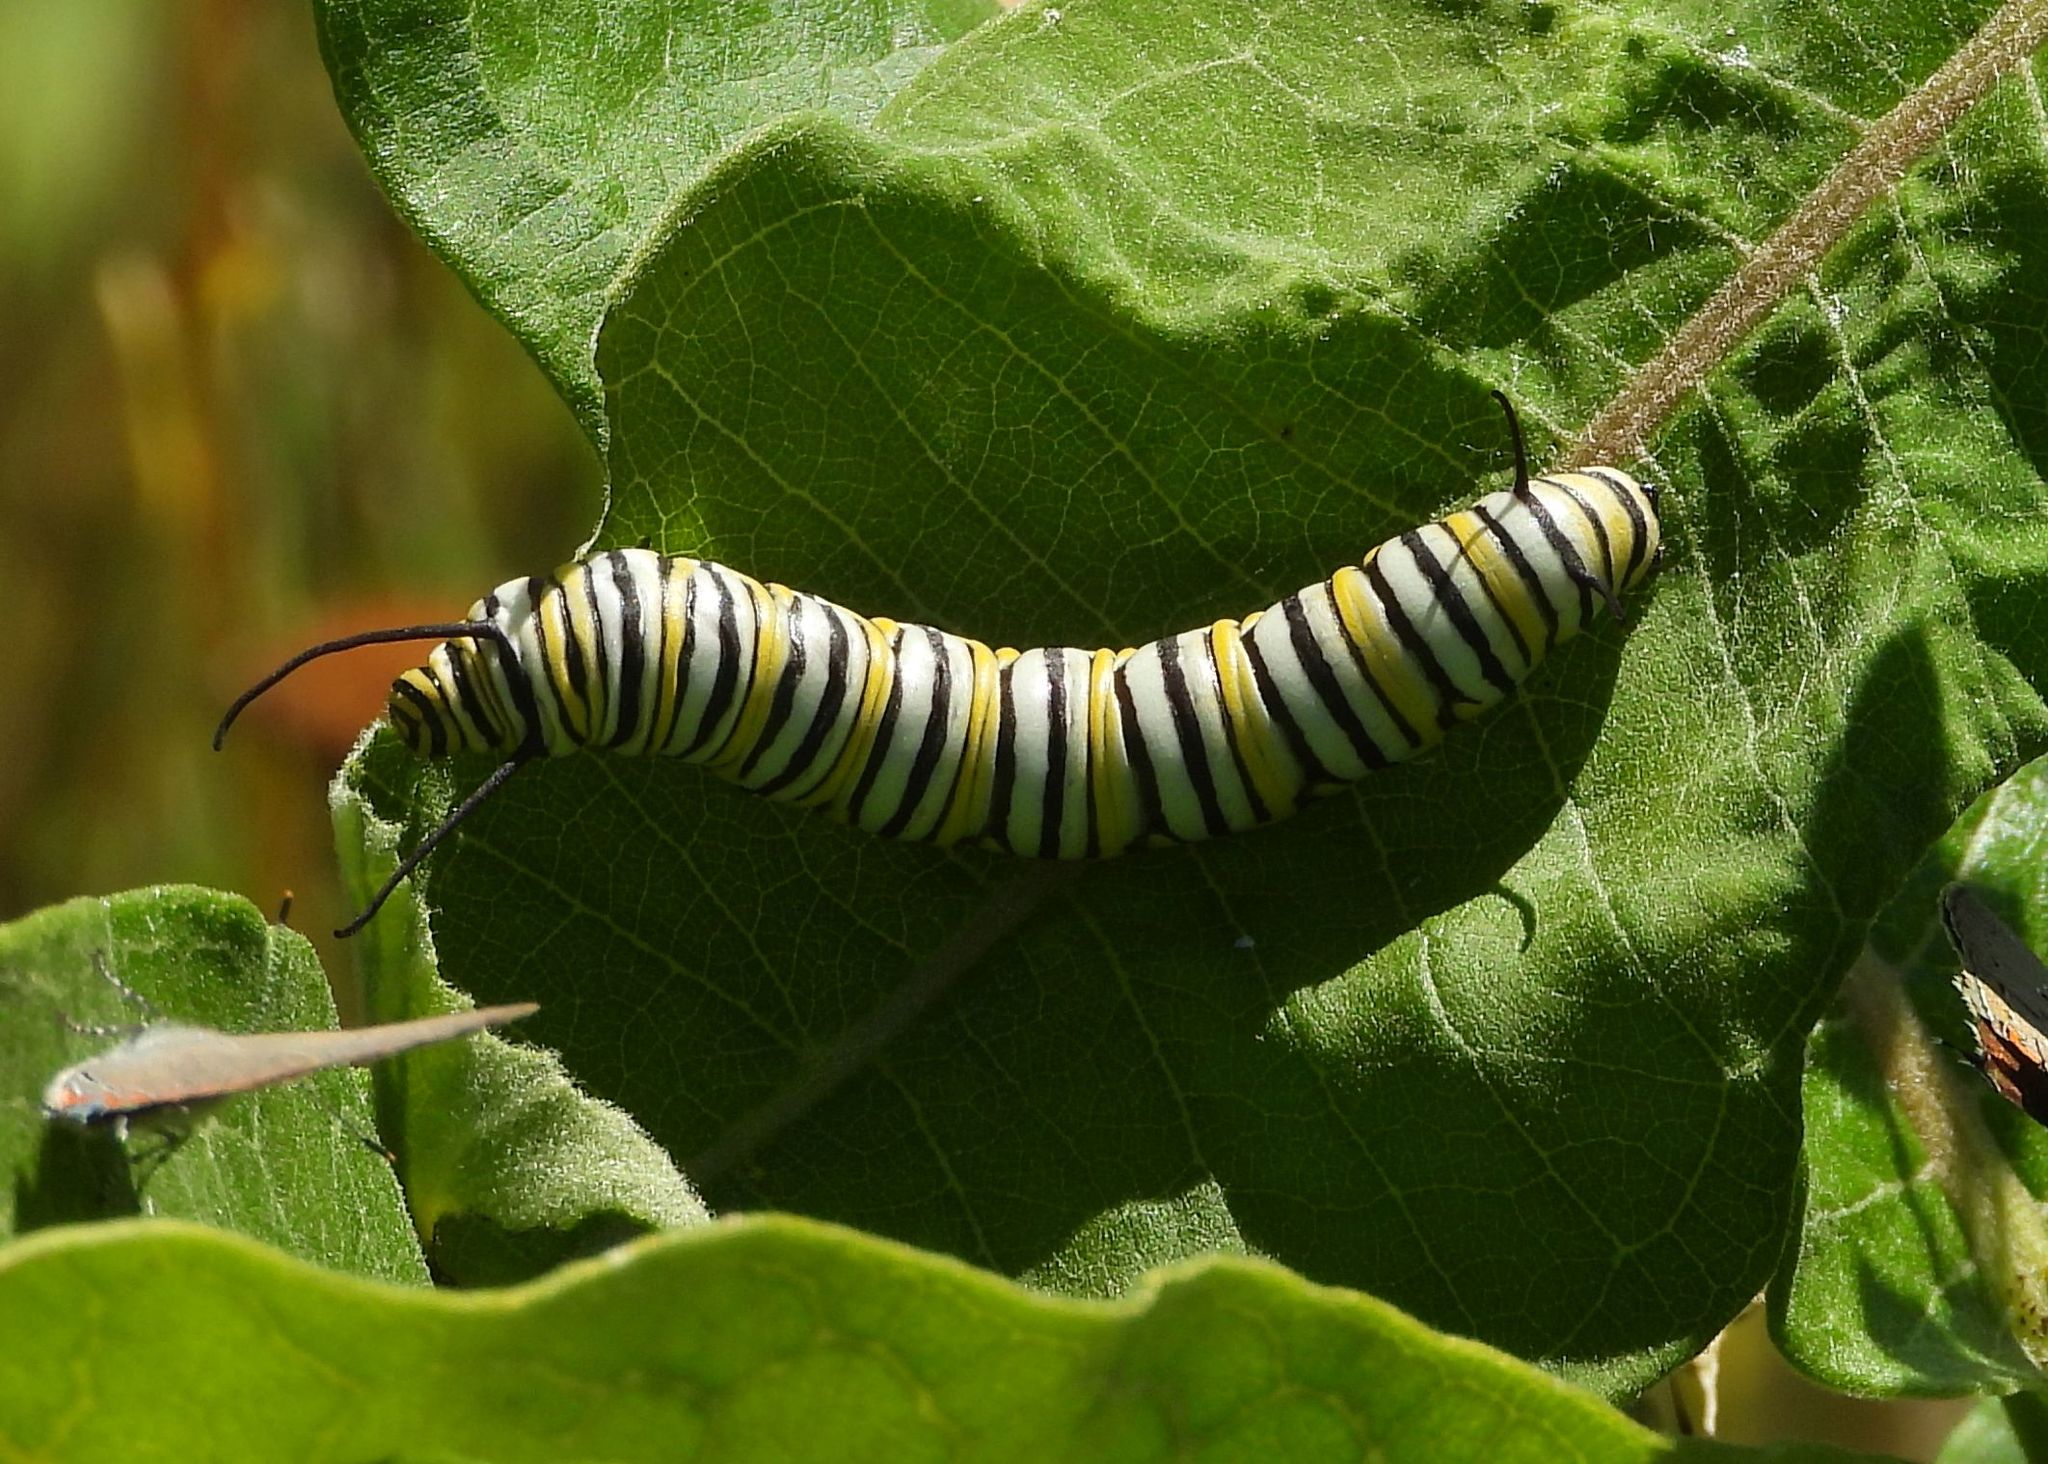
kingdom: Animalia
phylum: Arthropoda
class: Insecta
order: Lepidoptera
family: Nymphalidae
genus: Danaus
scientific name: Danaus plexippus
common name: Monarch
